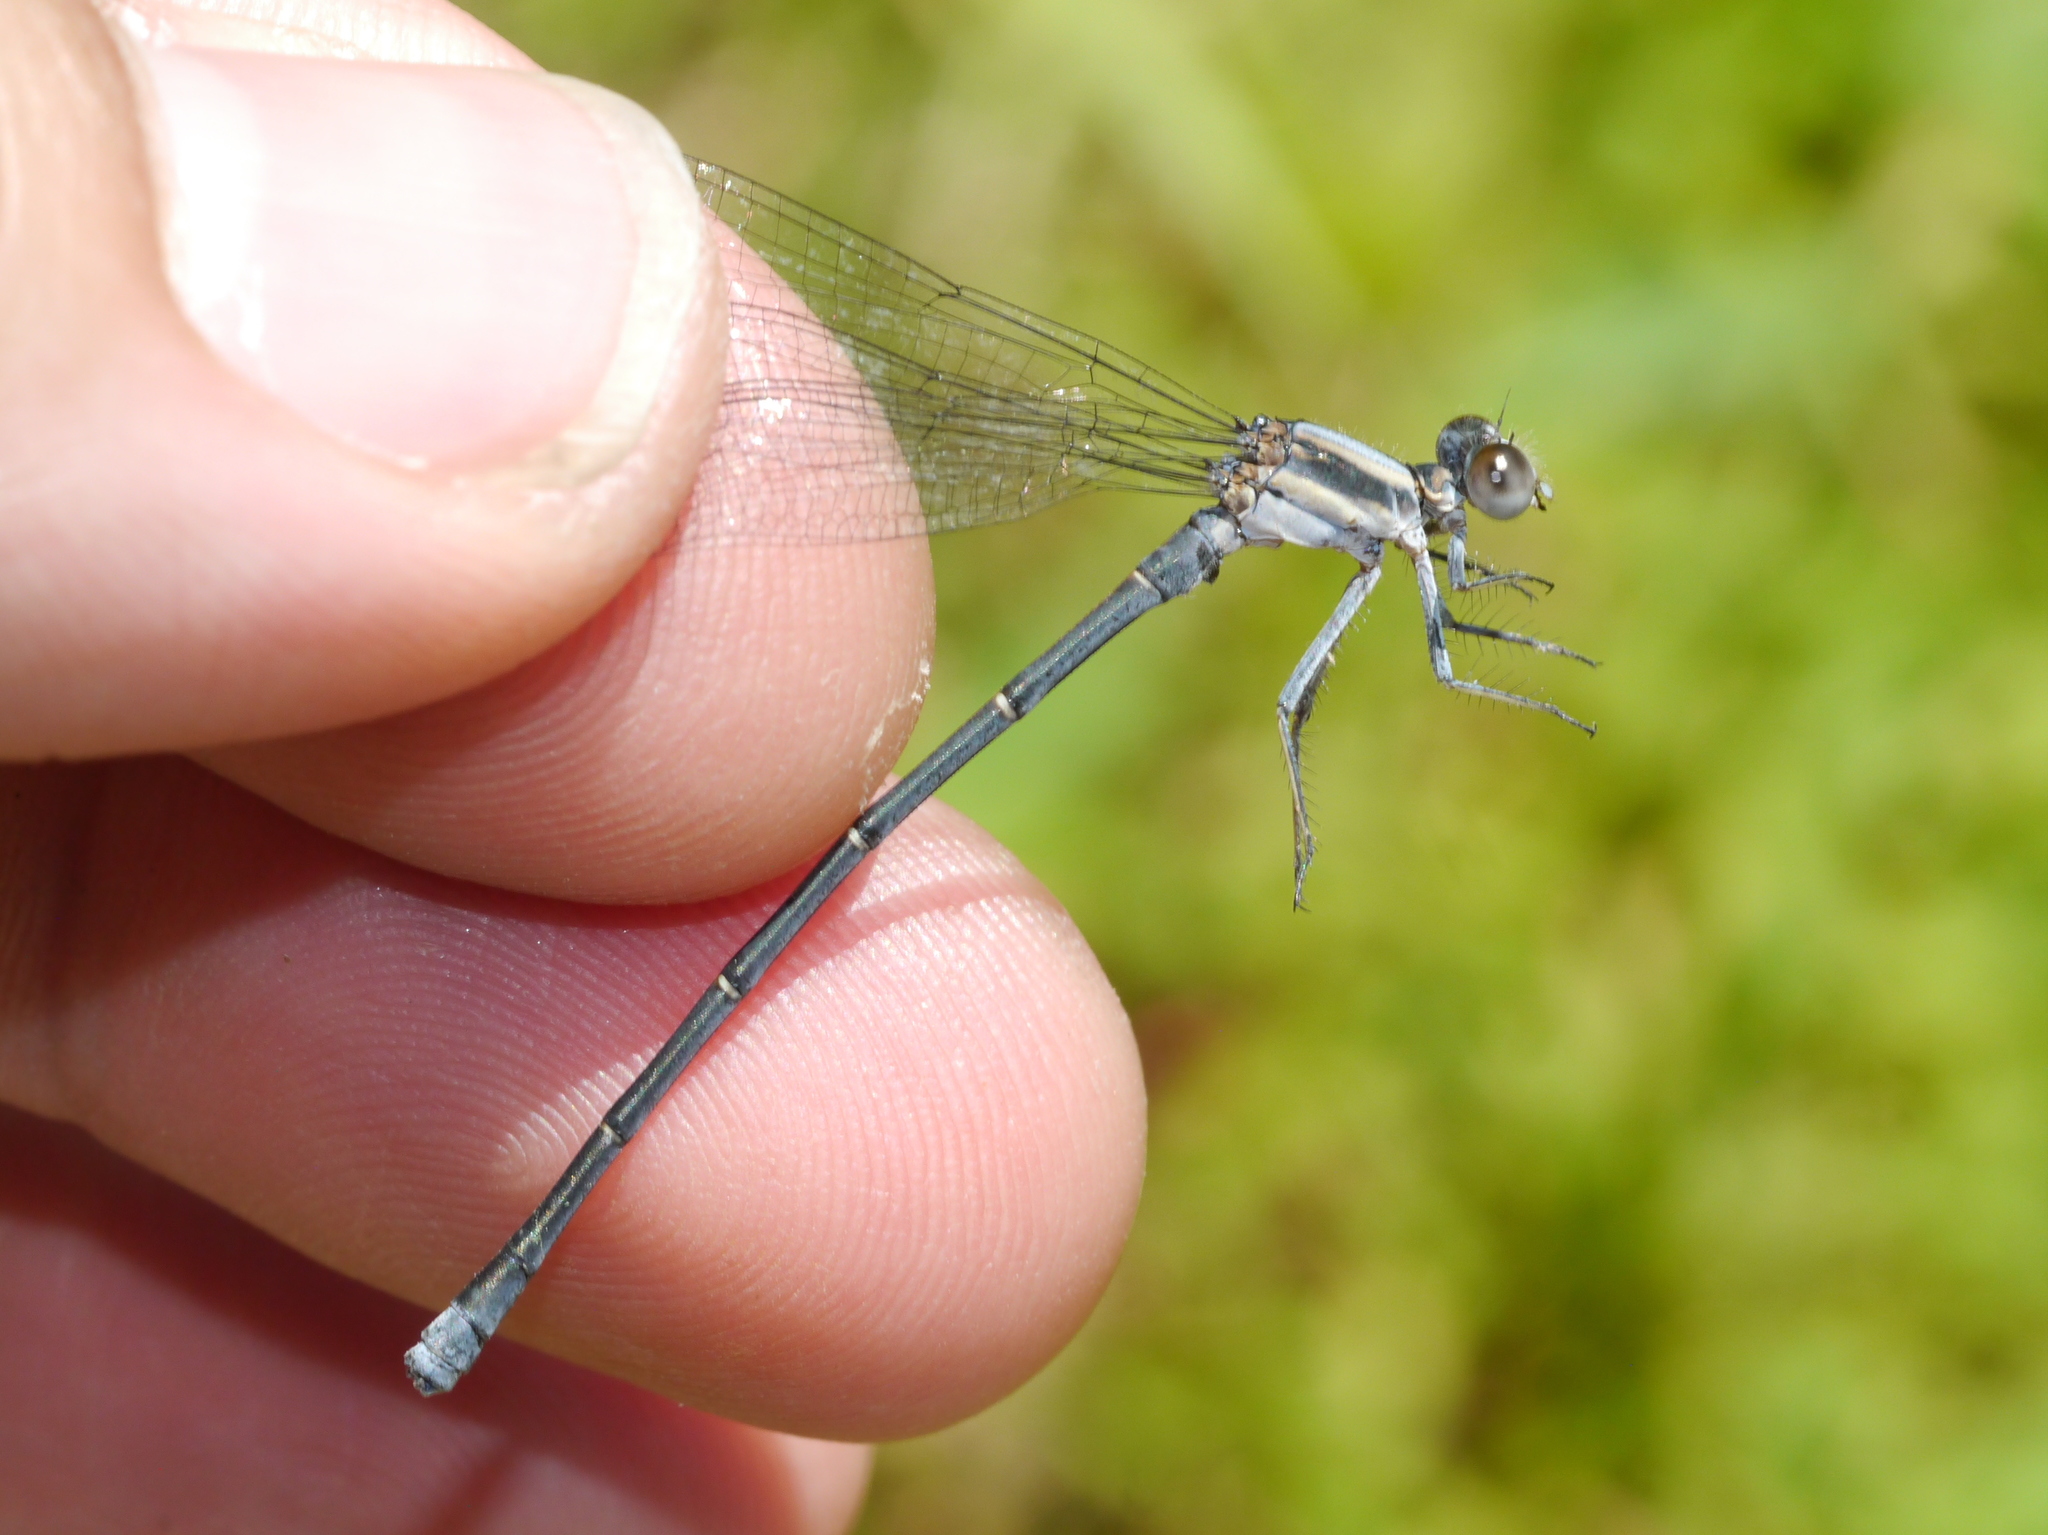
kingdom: Animalia
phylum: Arthropoda
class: Insecta
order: Odonata
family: Coenagrionidae
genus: Argia
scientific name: Argia moesta
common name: Powdered dancer
